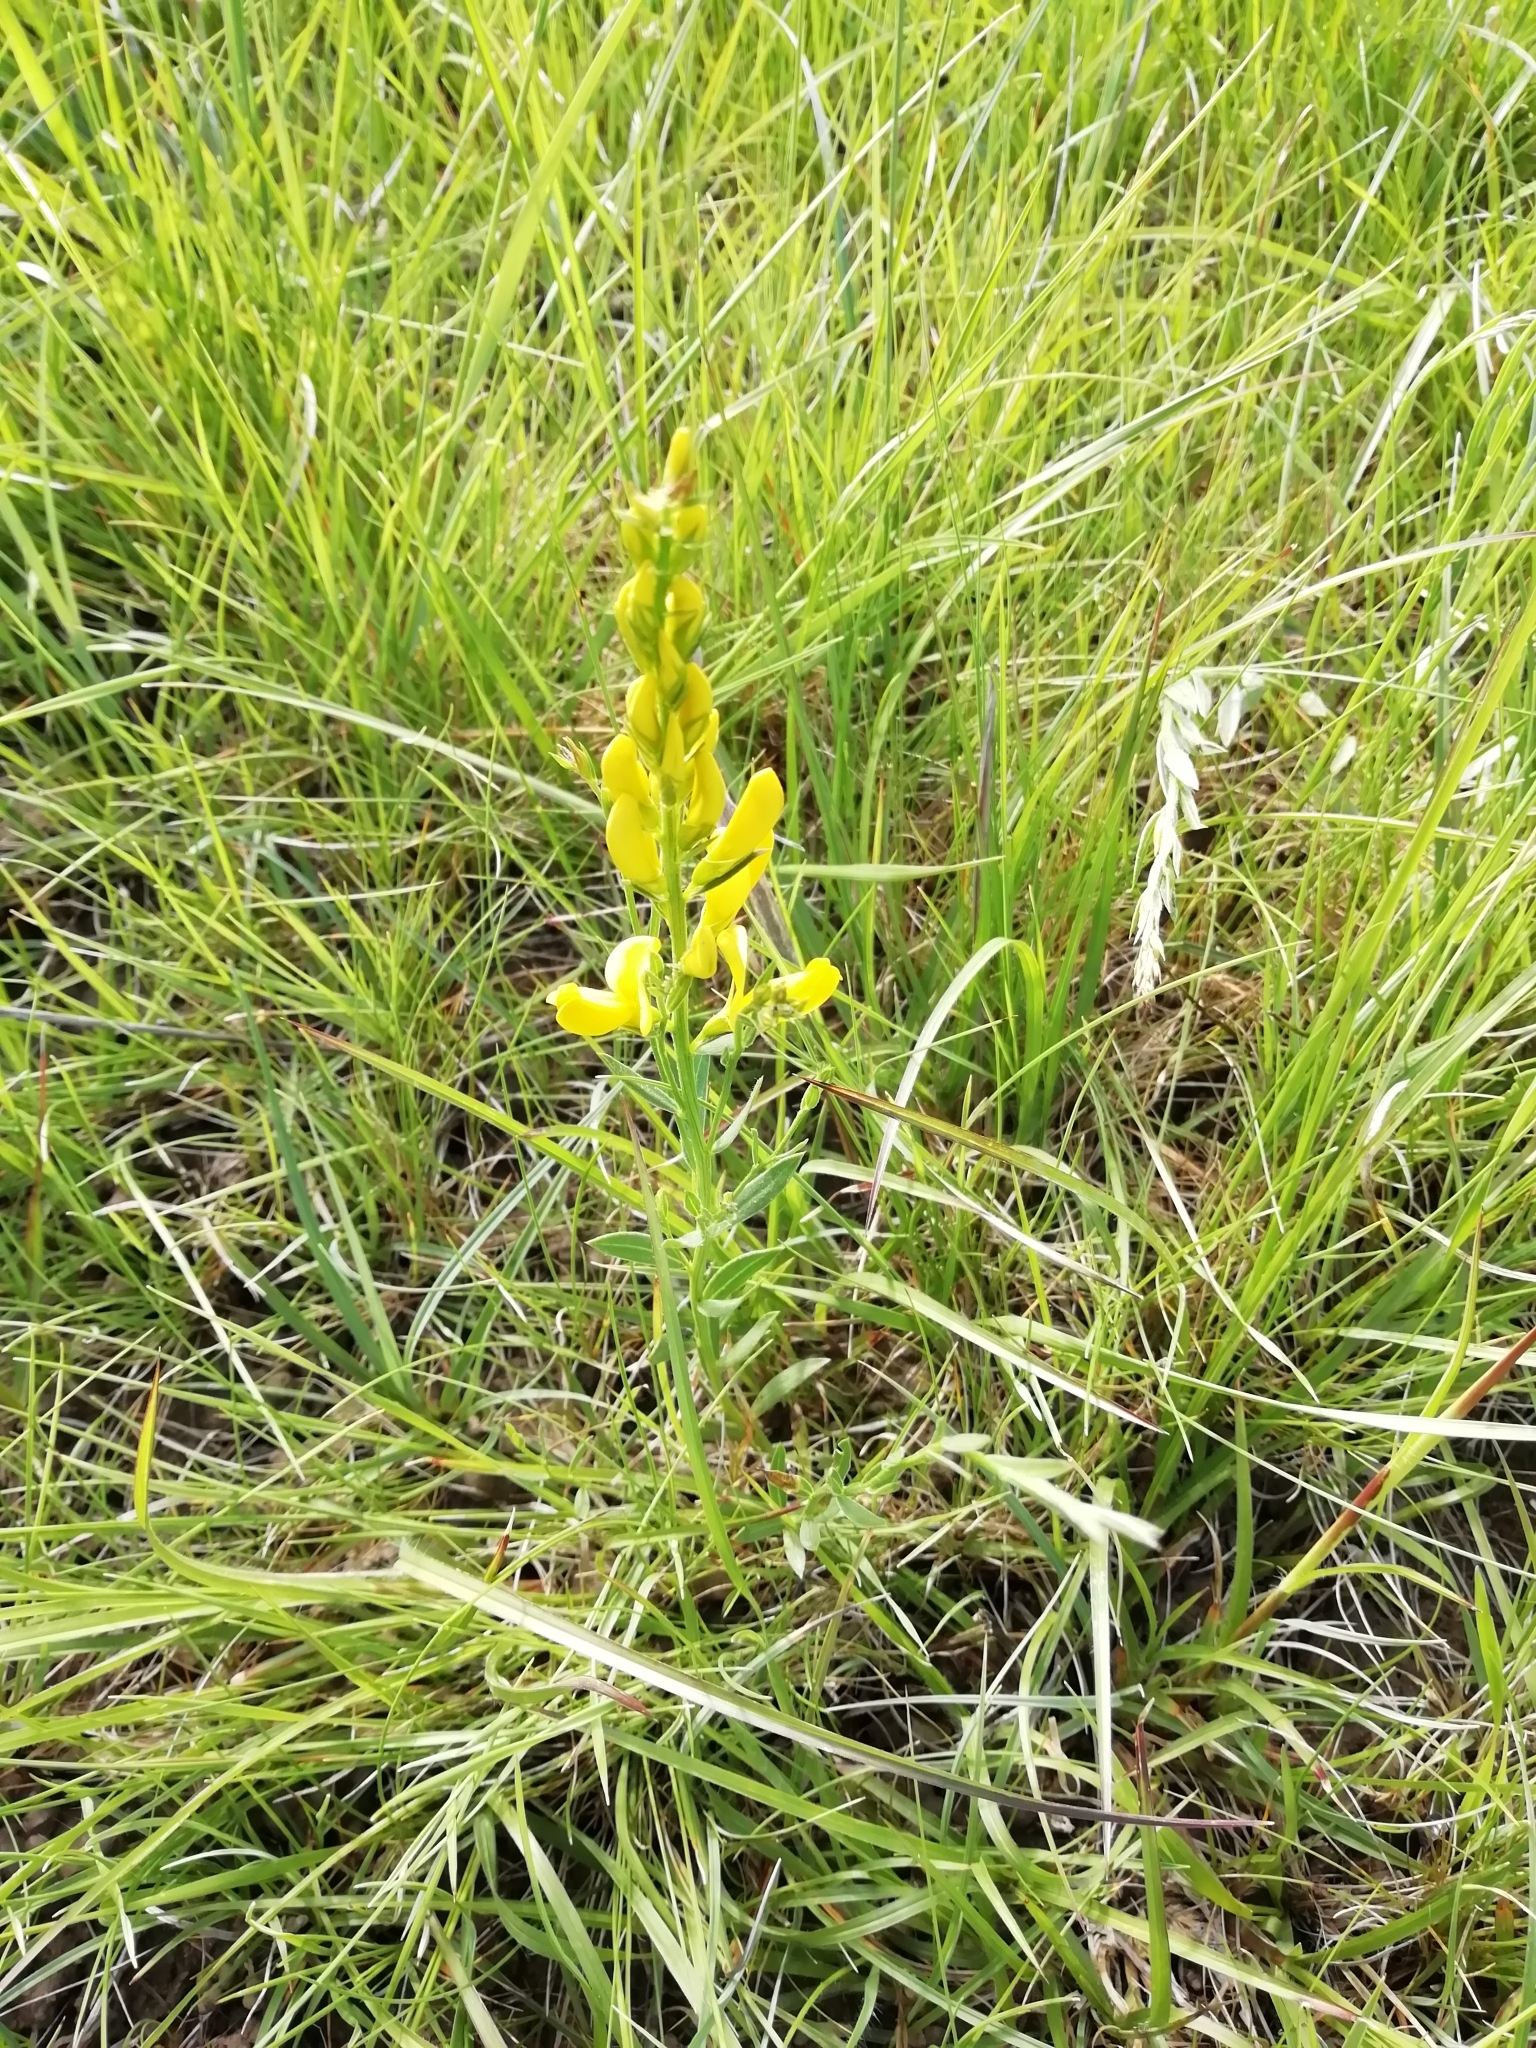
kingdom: Plantae
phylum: Tracheophyta
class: Magnoliopsida
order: Fabales
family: Fabaceae
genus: Genista
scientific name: Genista tinctoria
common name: Dyer's greenweed
